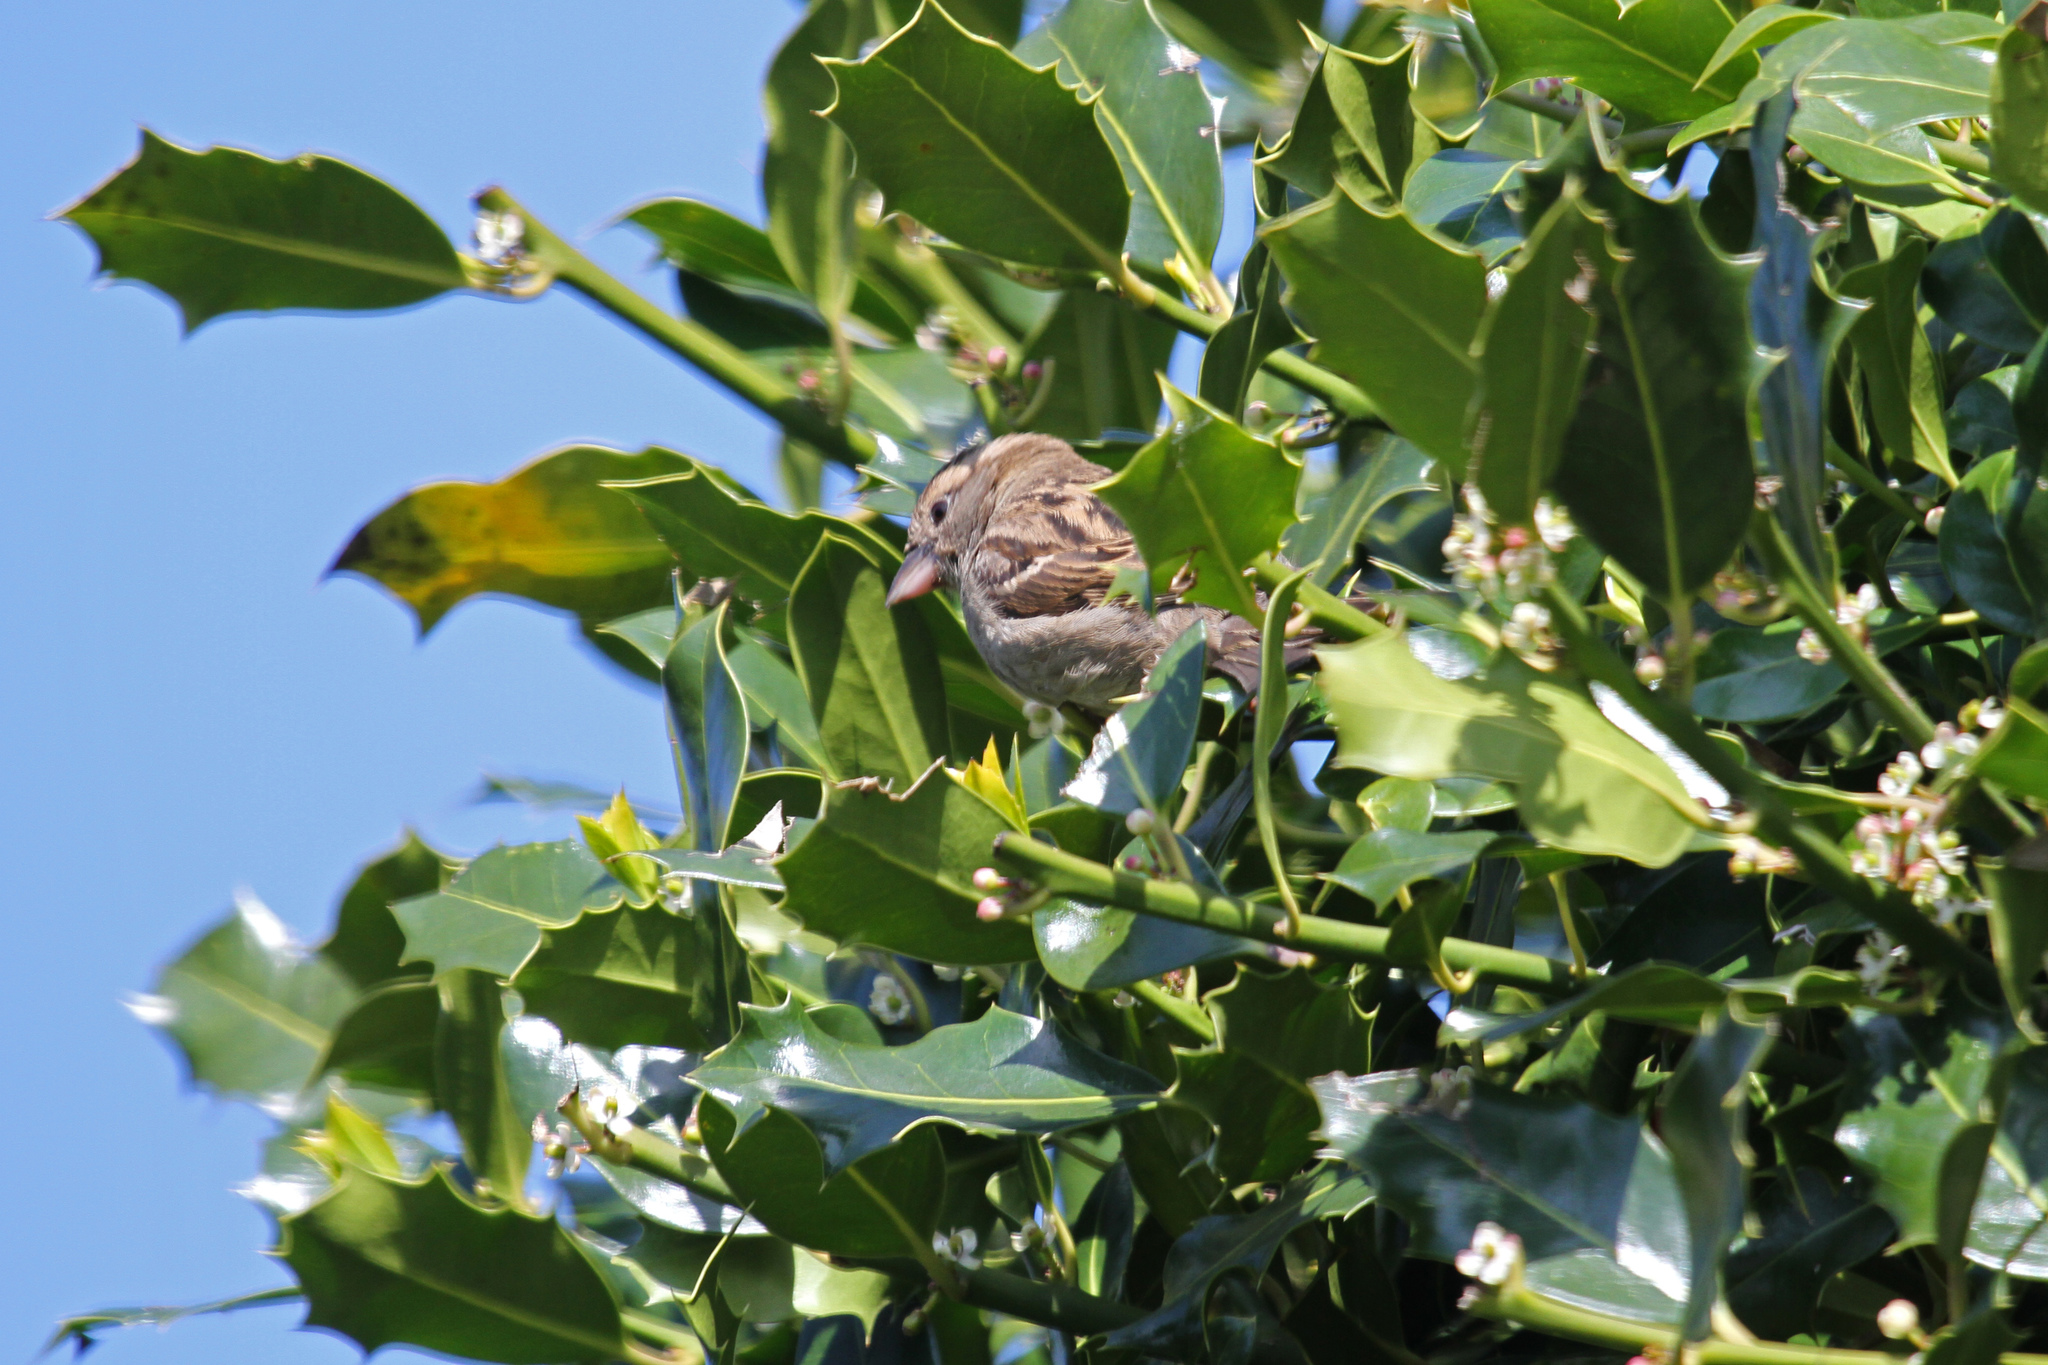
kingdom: Animalia
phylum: Chordata
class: Aves
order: Passeriformes
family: Passeridae
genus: Passer
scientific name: Passer domesticus
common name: House sparrow
